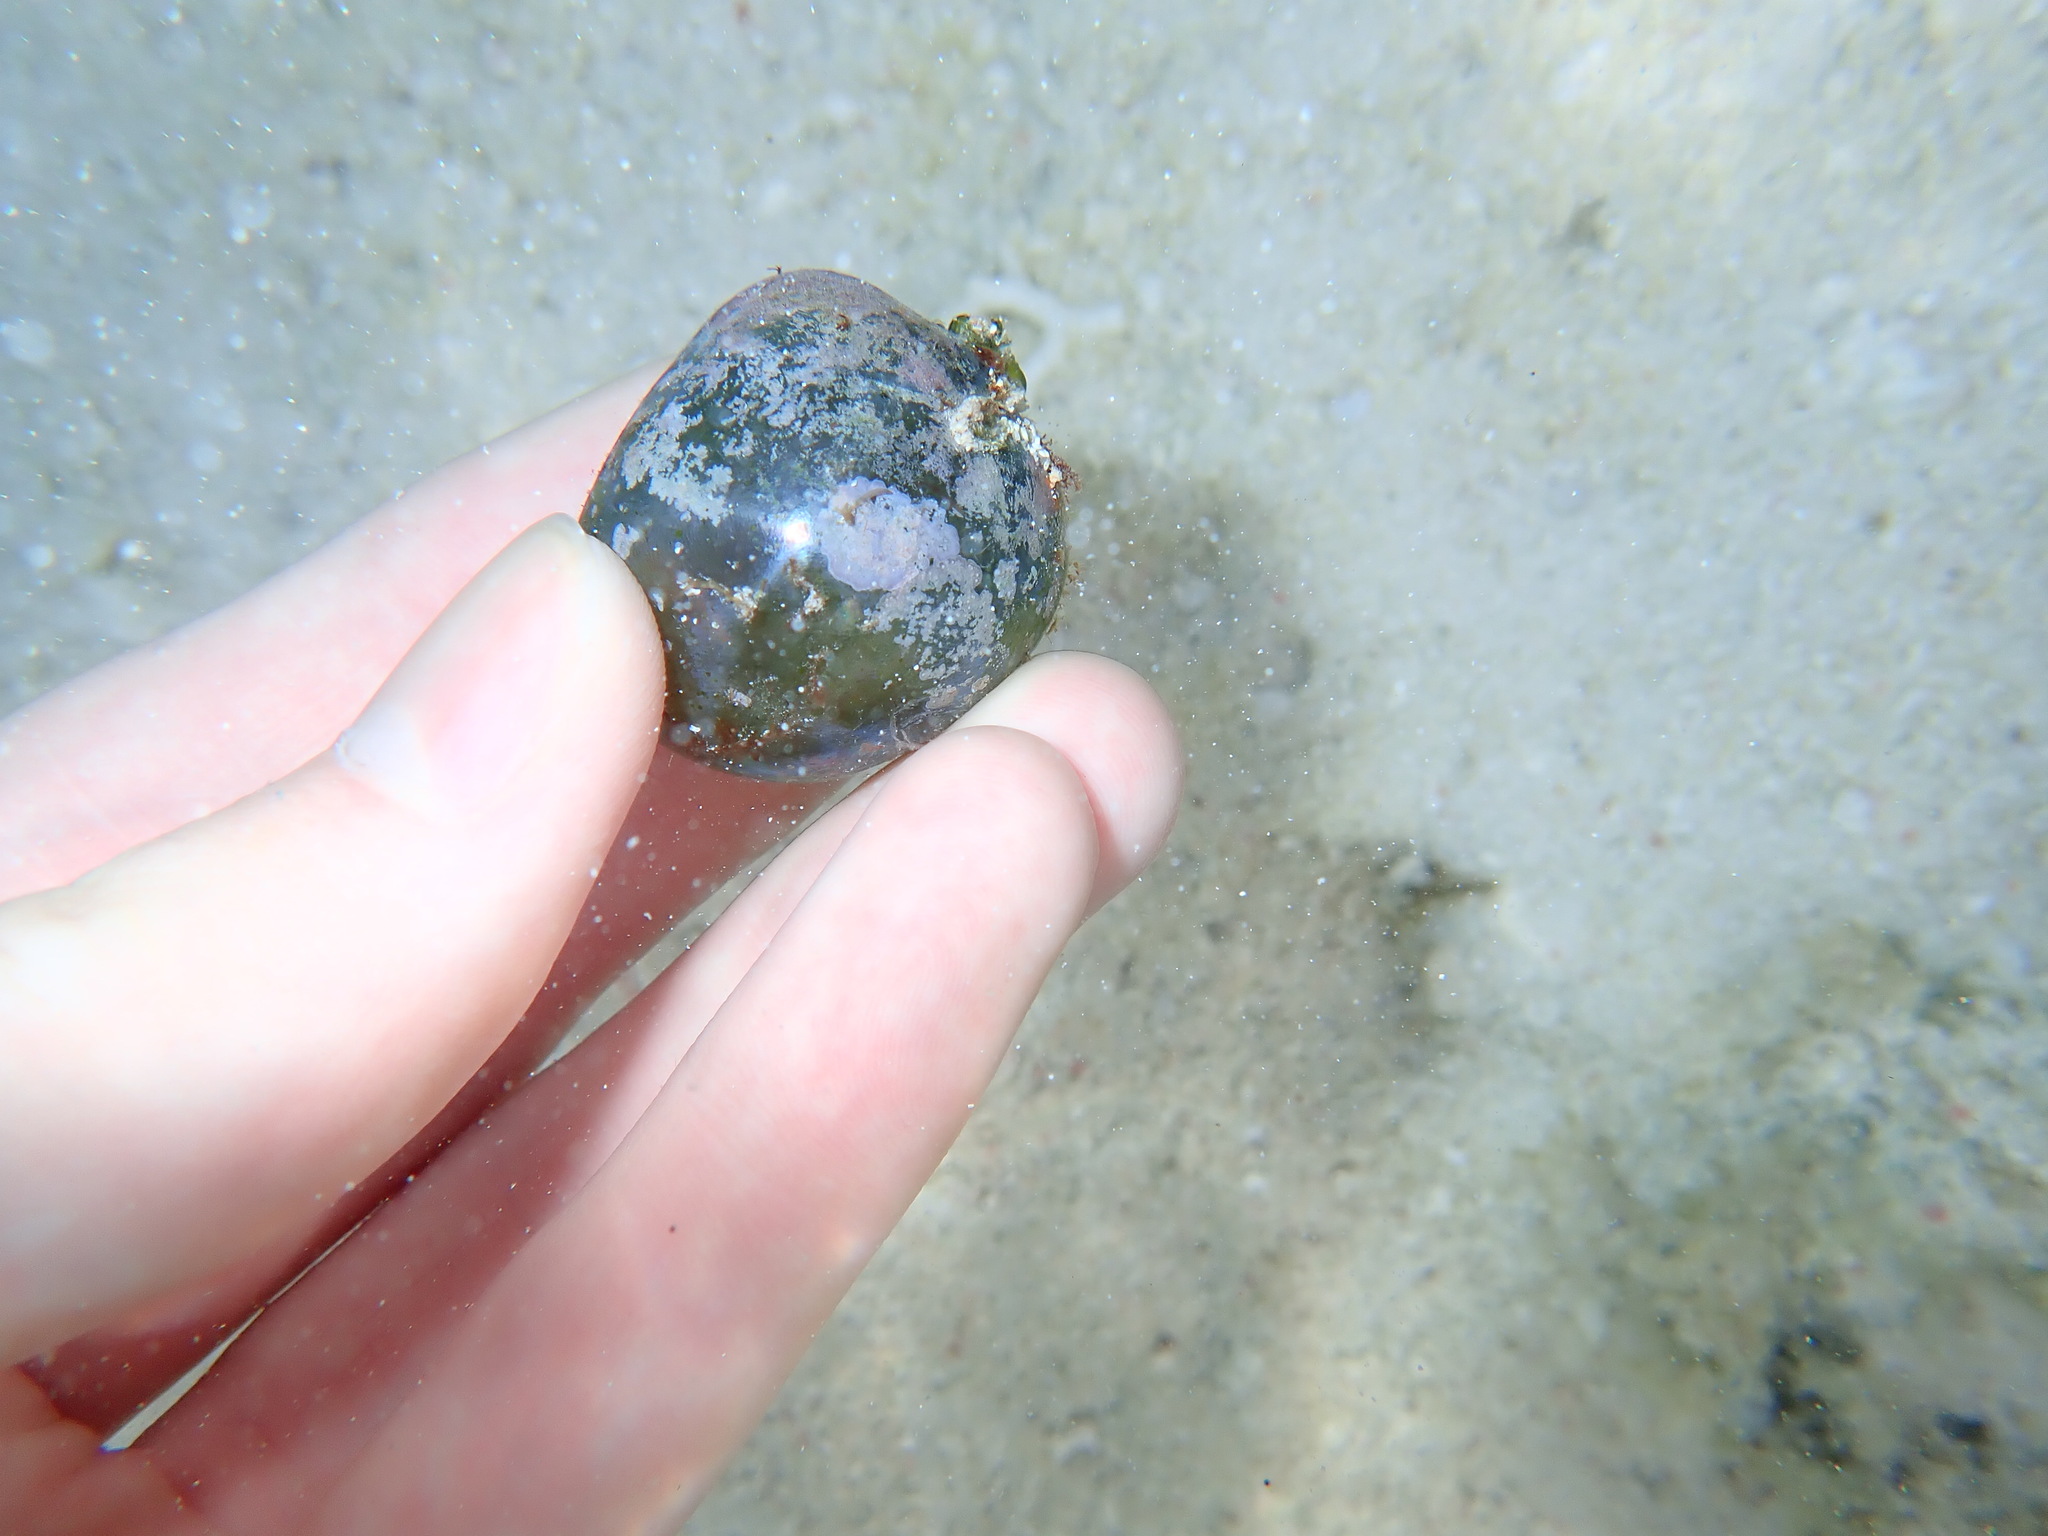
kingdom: Plantae
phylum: Chlorophyta
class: Ulvophyceae
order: Siphonocladales
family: Valoniaceae
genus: Valonia
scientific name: Valonia ventricosa
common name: Sea pearl
